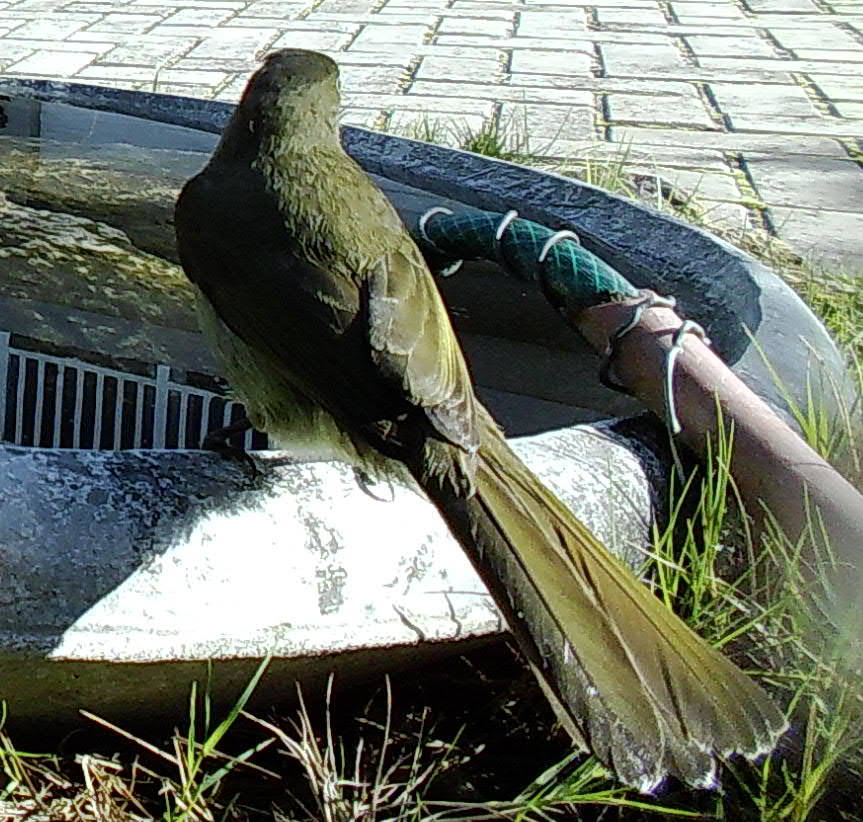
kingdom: Animalia
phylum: Chordata
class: Aves
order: Passeriformes
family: Pycnonotidae
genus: Andropadus
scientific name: Andropadus importunus
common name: Sombre greenbul
